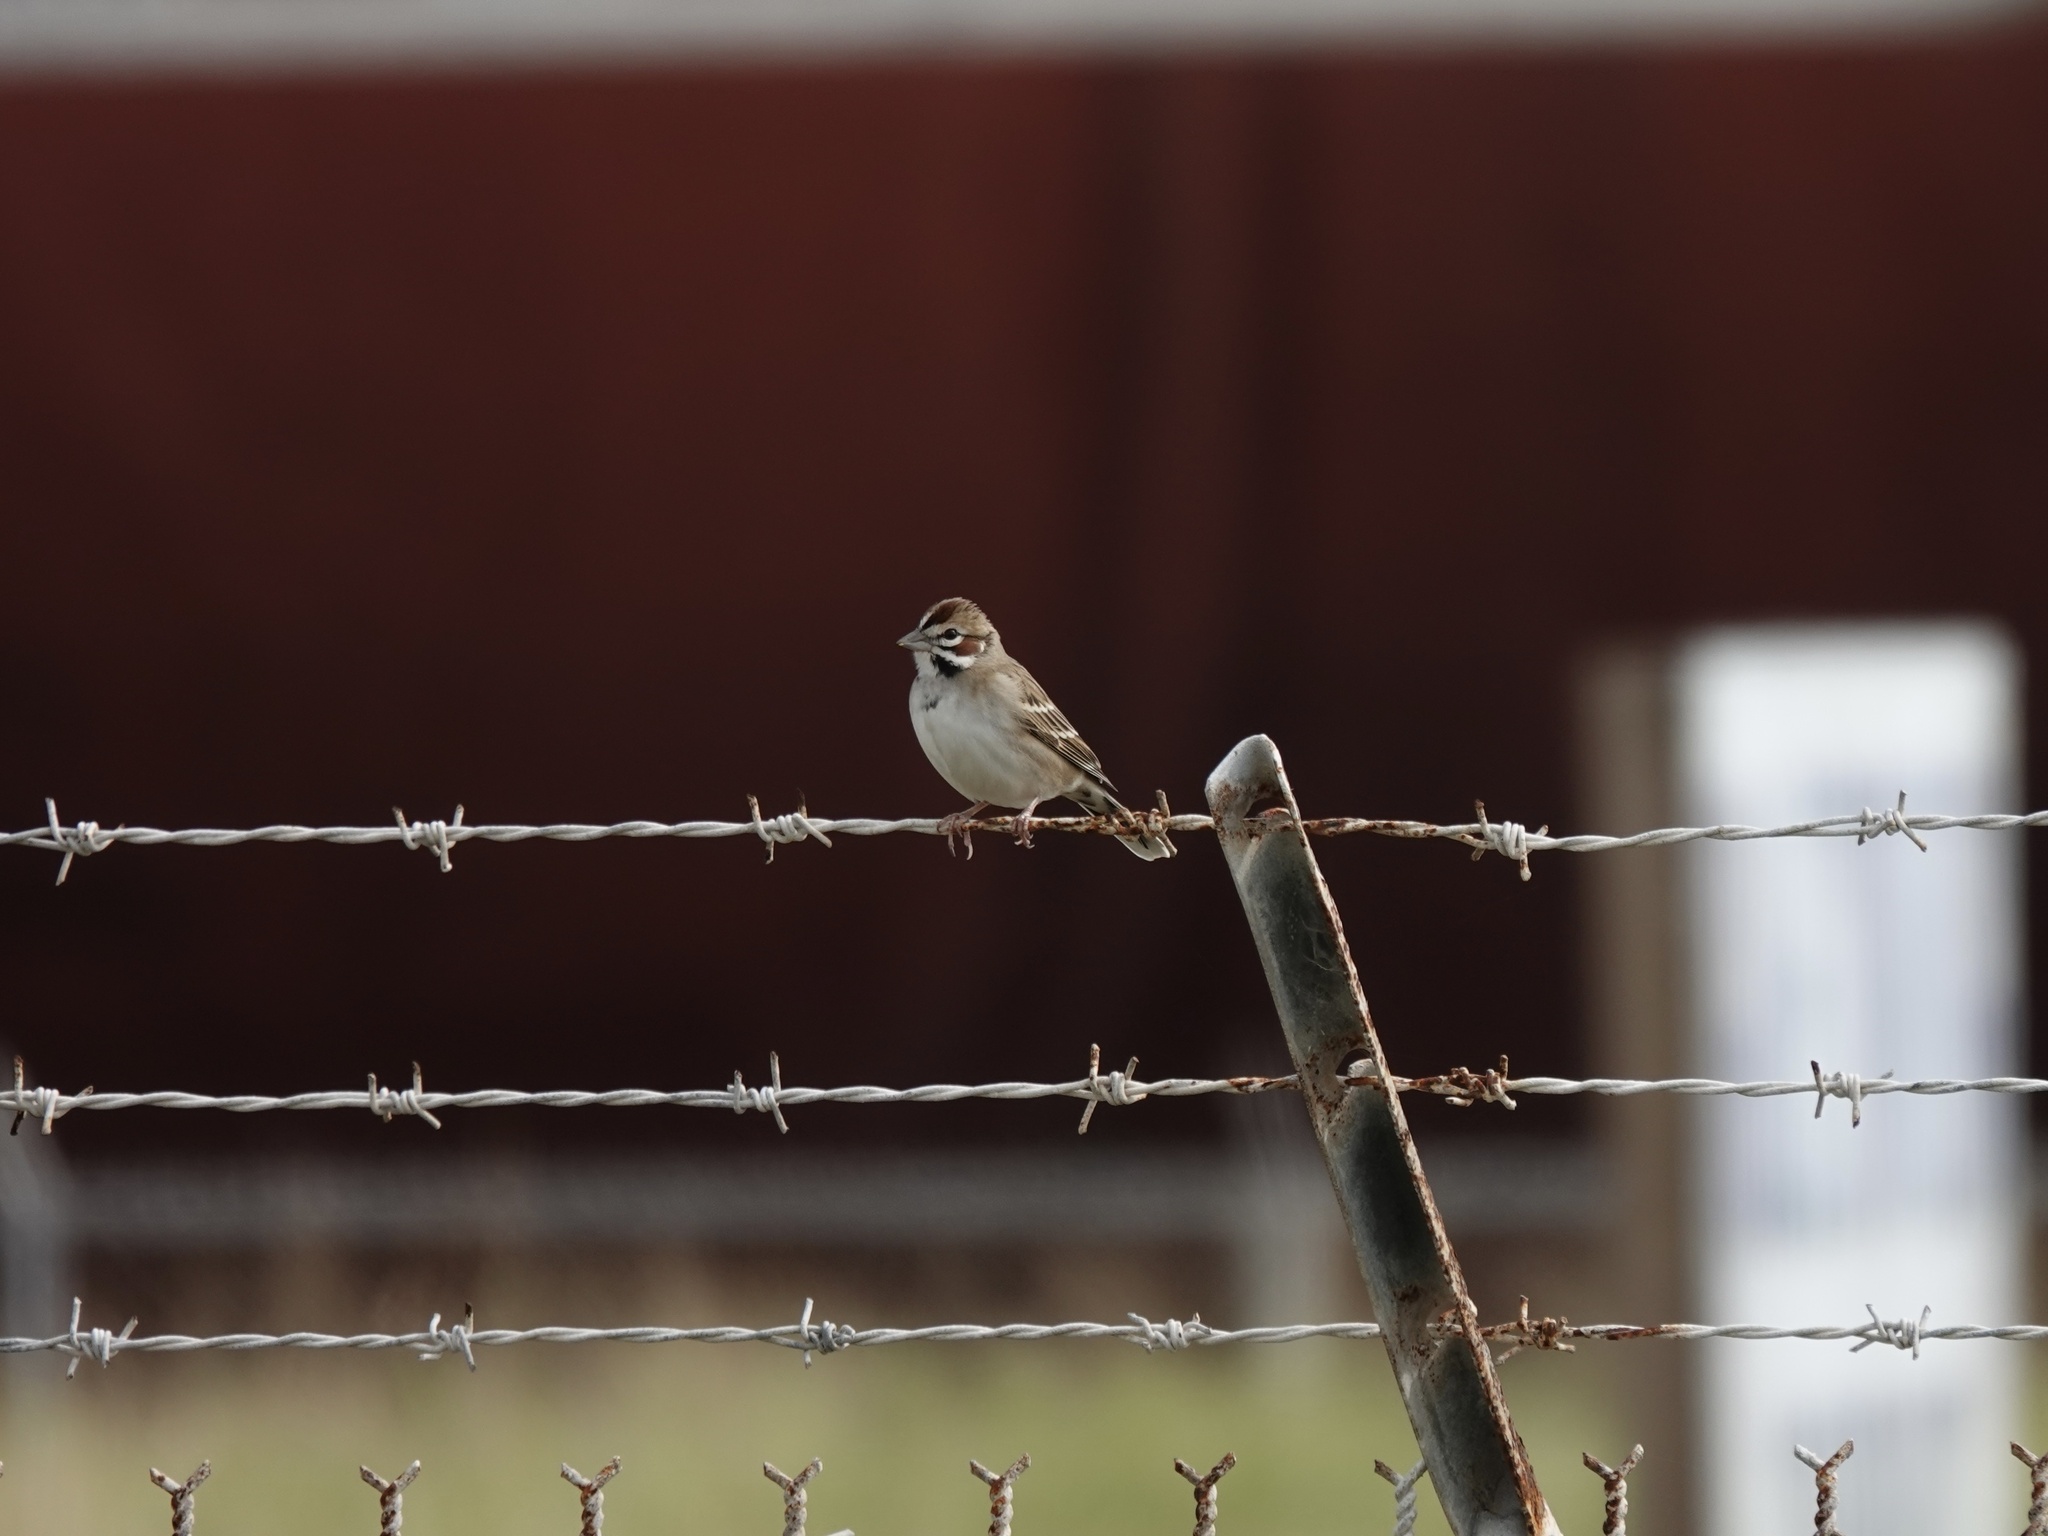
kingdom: Animalia
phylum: Chordata
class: Aves
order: Passeriformes
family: Passerellidae
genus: Chondestes
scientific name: Chondestes grammacus
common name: Lark sparrow
